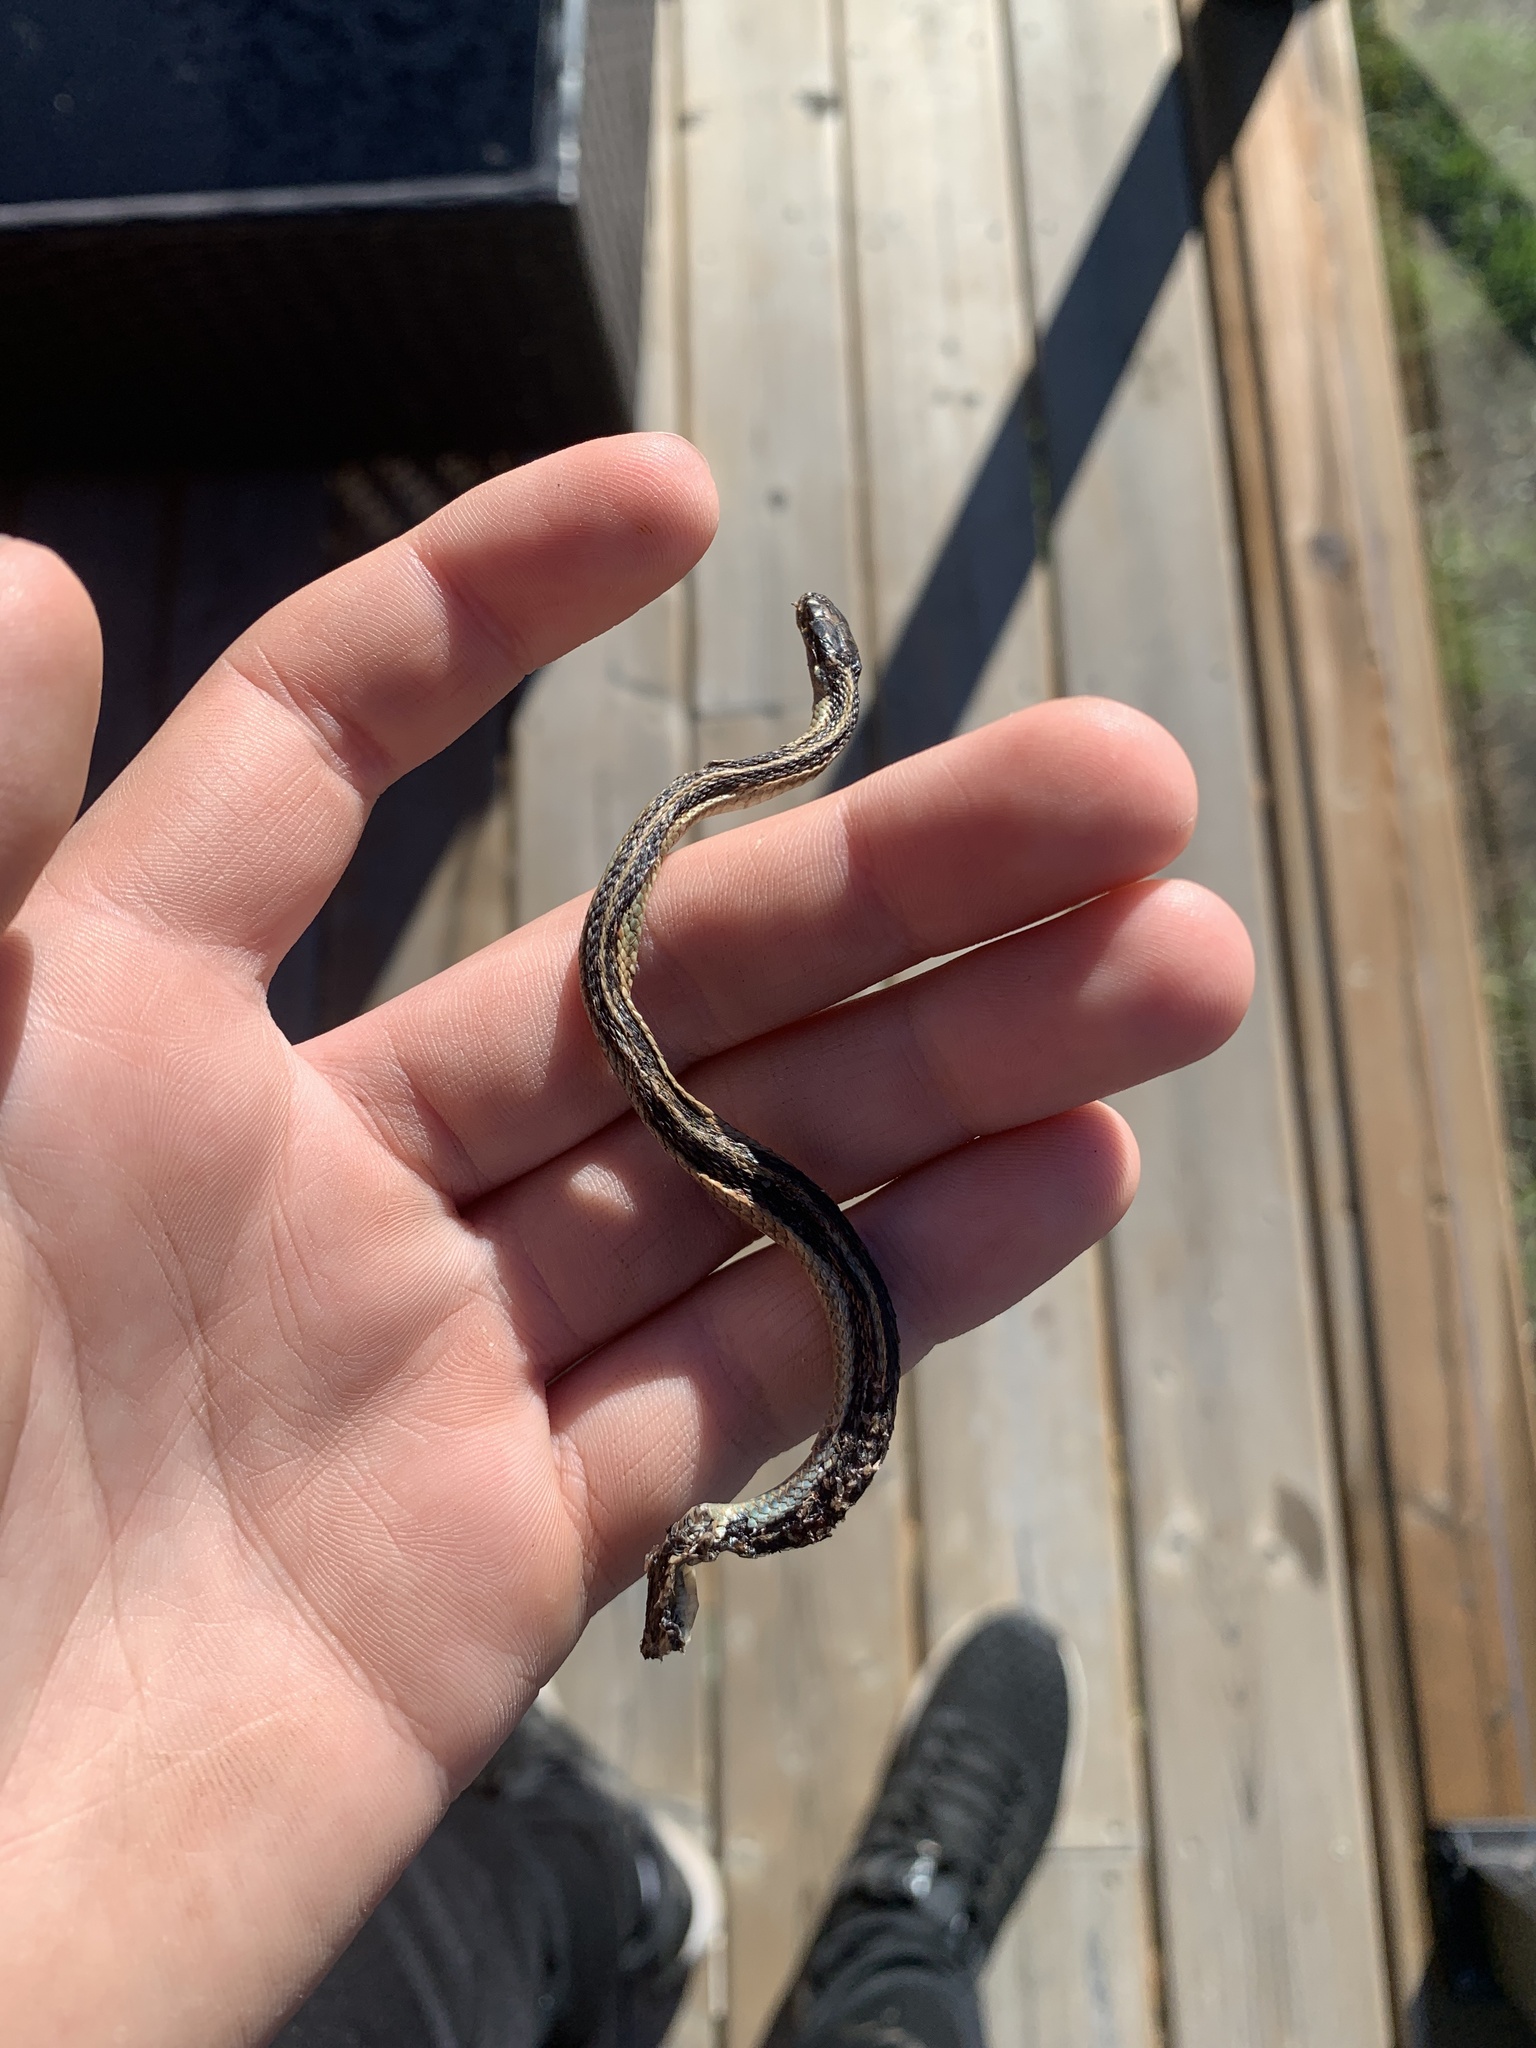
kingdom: Animalia
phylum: Chordata
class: Squamata
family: Colubridae
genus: Thamnophis
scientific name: Thamnophis sirtalis
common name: Common garter snake
